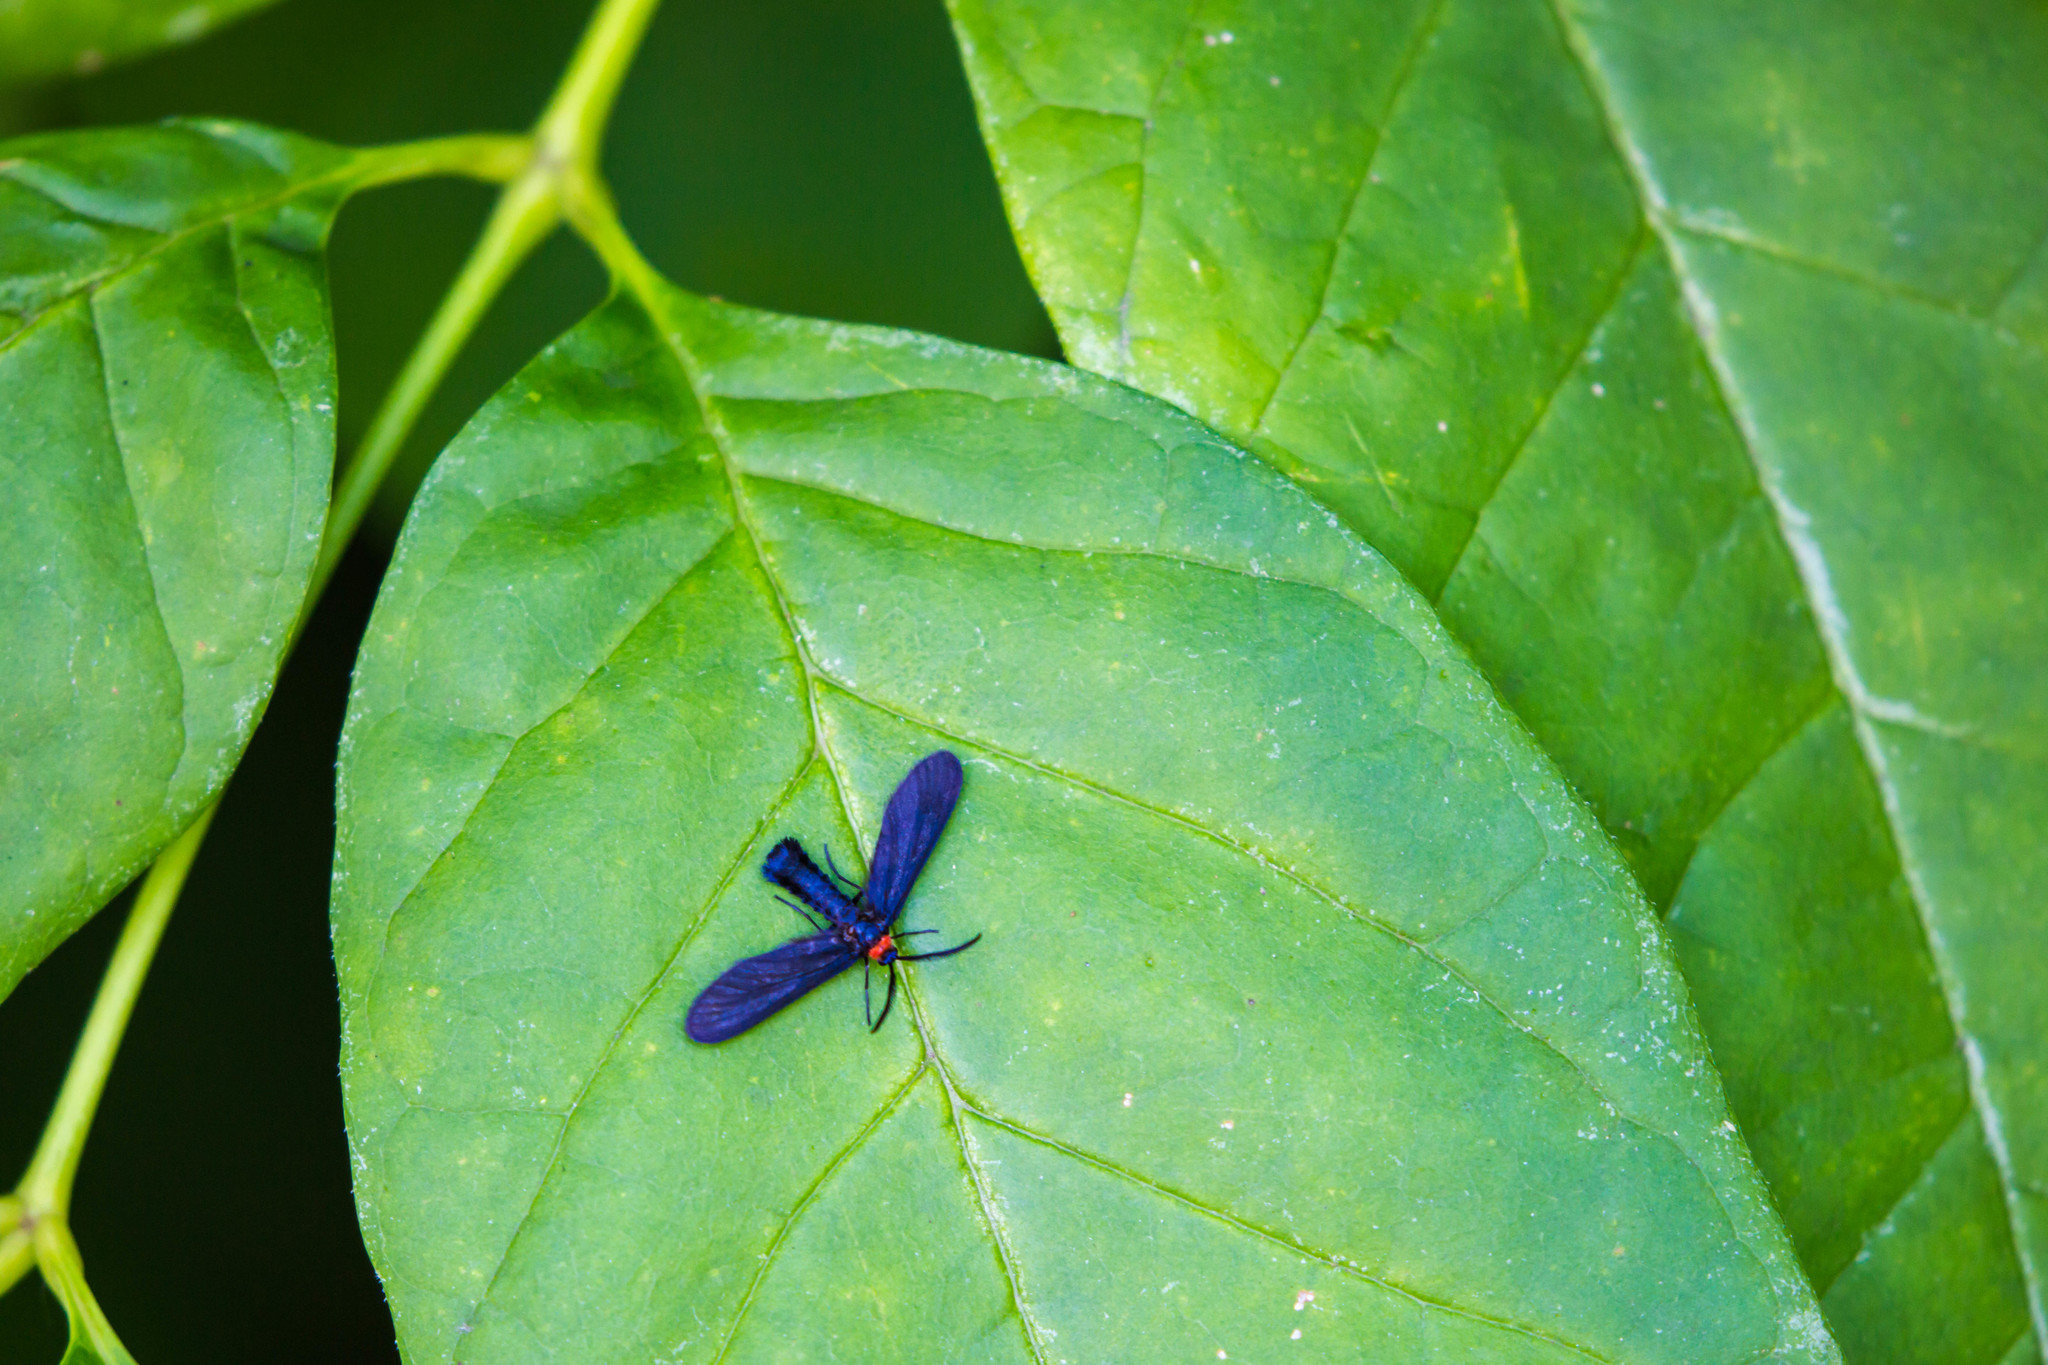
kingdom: Animalia
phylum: Arthropoda
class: Insecta
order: Lepidoptera
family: Zygaenidae
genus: Harrisina
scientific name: Harrisina americana
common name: Grapeleaf skeletonizer moth
